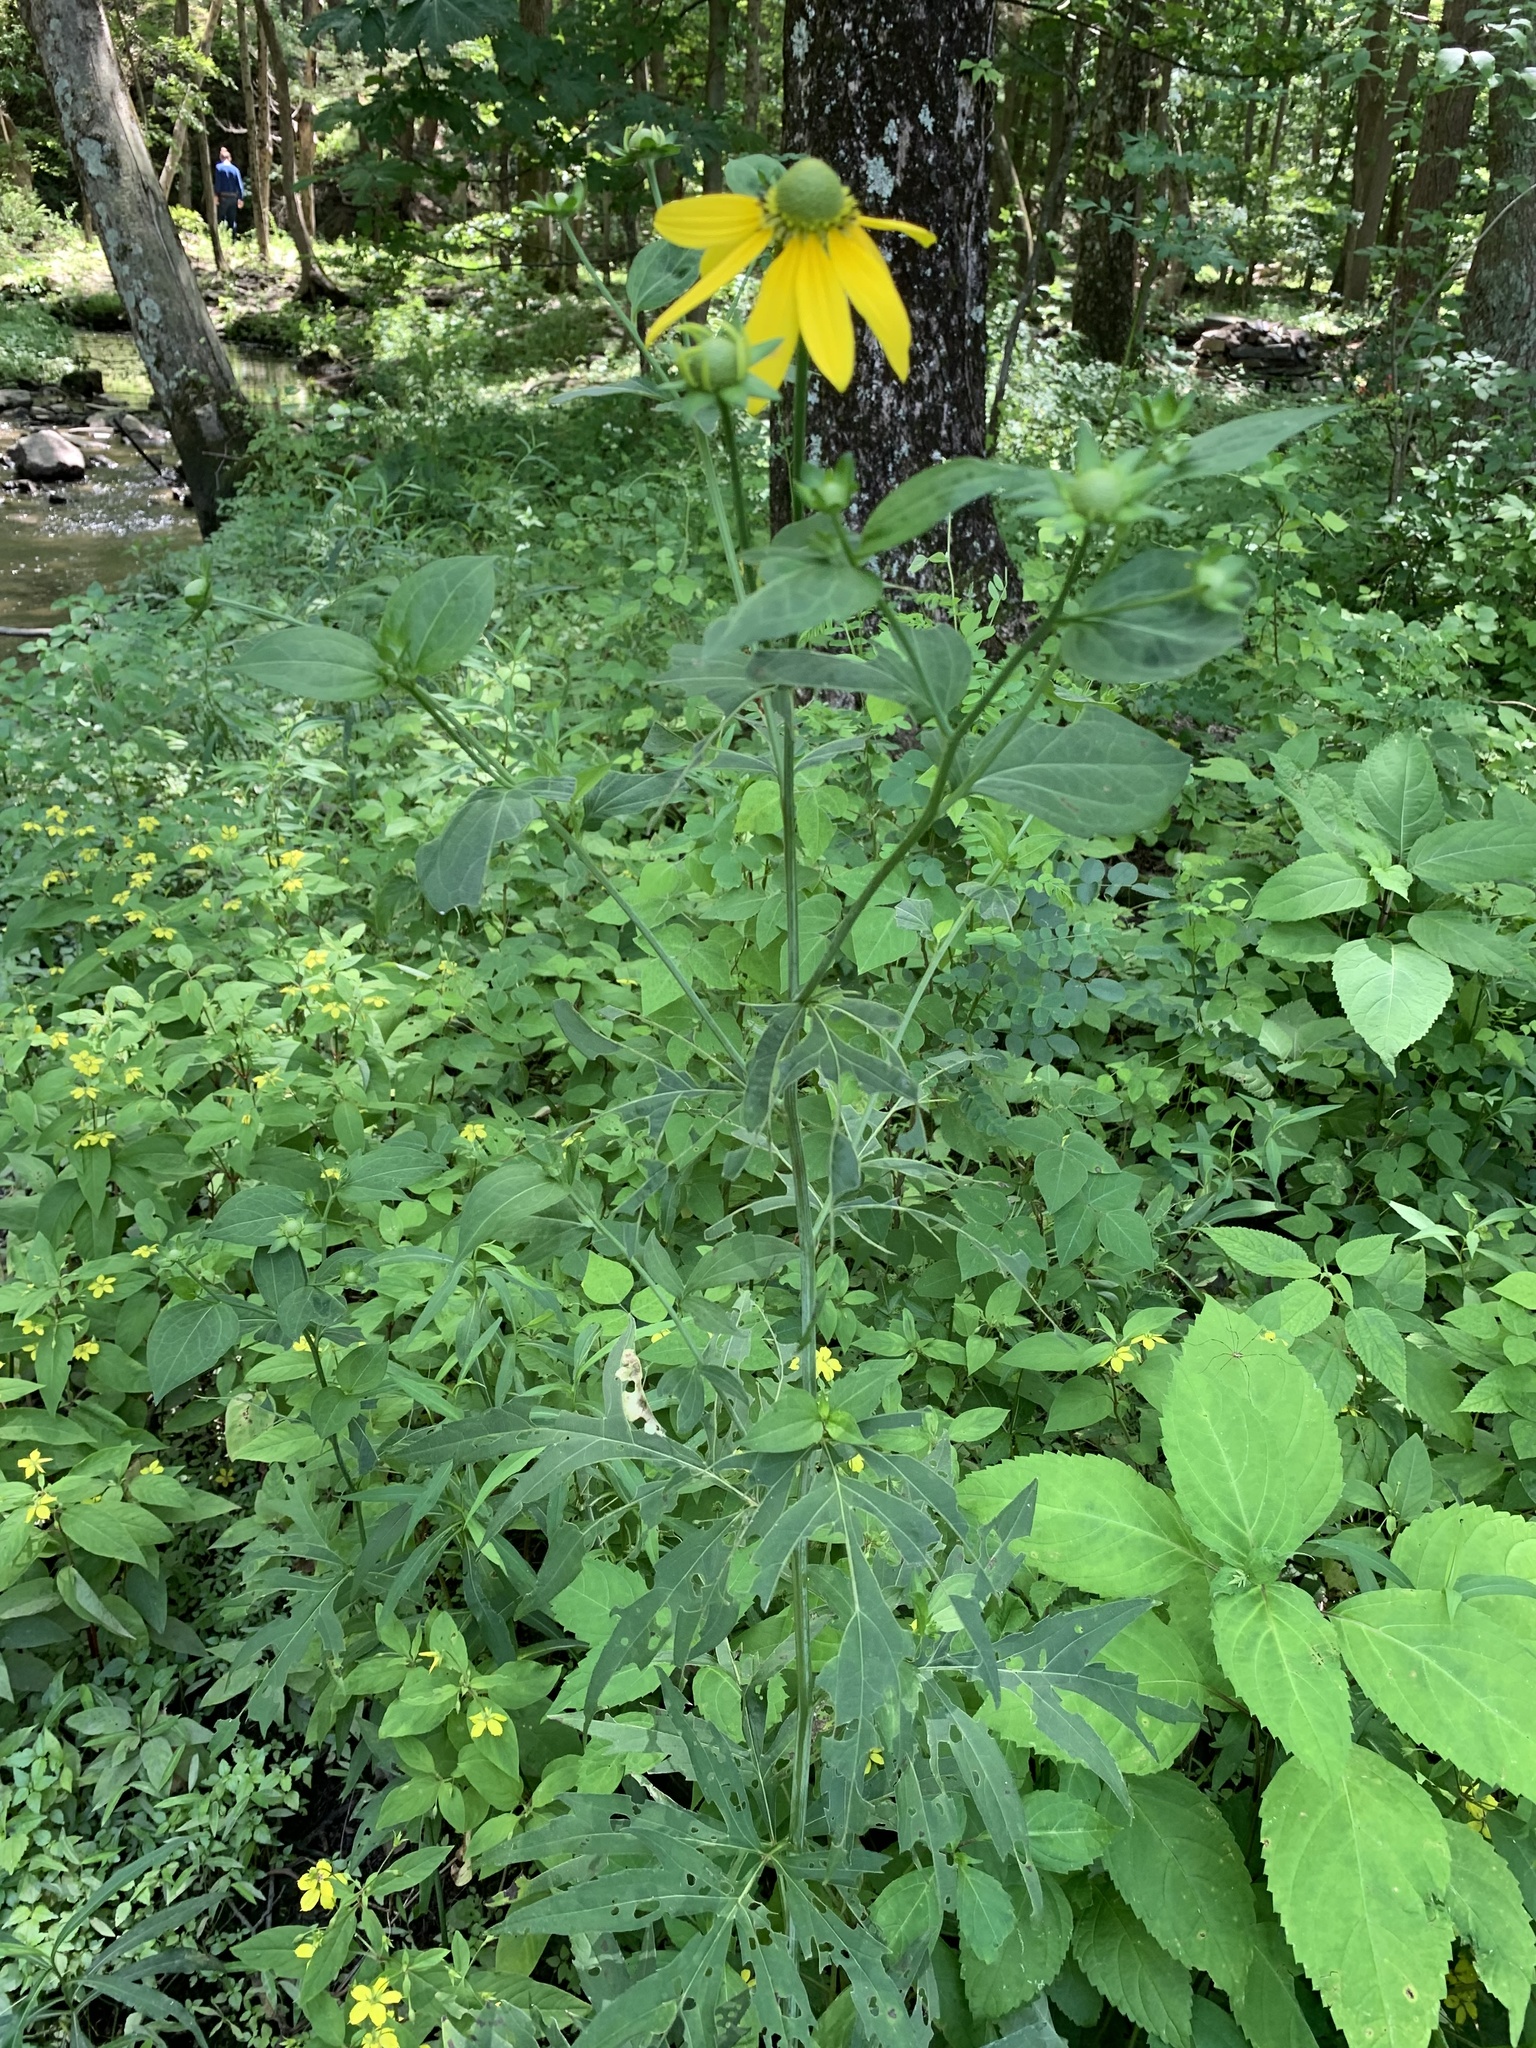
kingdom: Plantae
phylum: Tracheophyta
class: Magnoliopsida
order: Asterales
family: Asteraceae
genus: Rudbeckia
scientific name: Rudbeckia laciniata
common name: Coneflower
